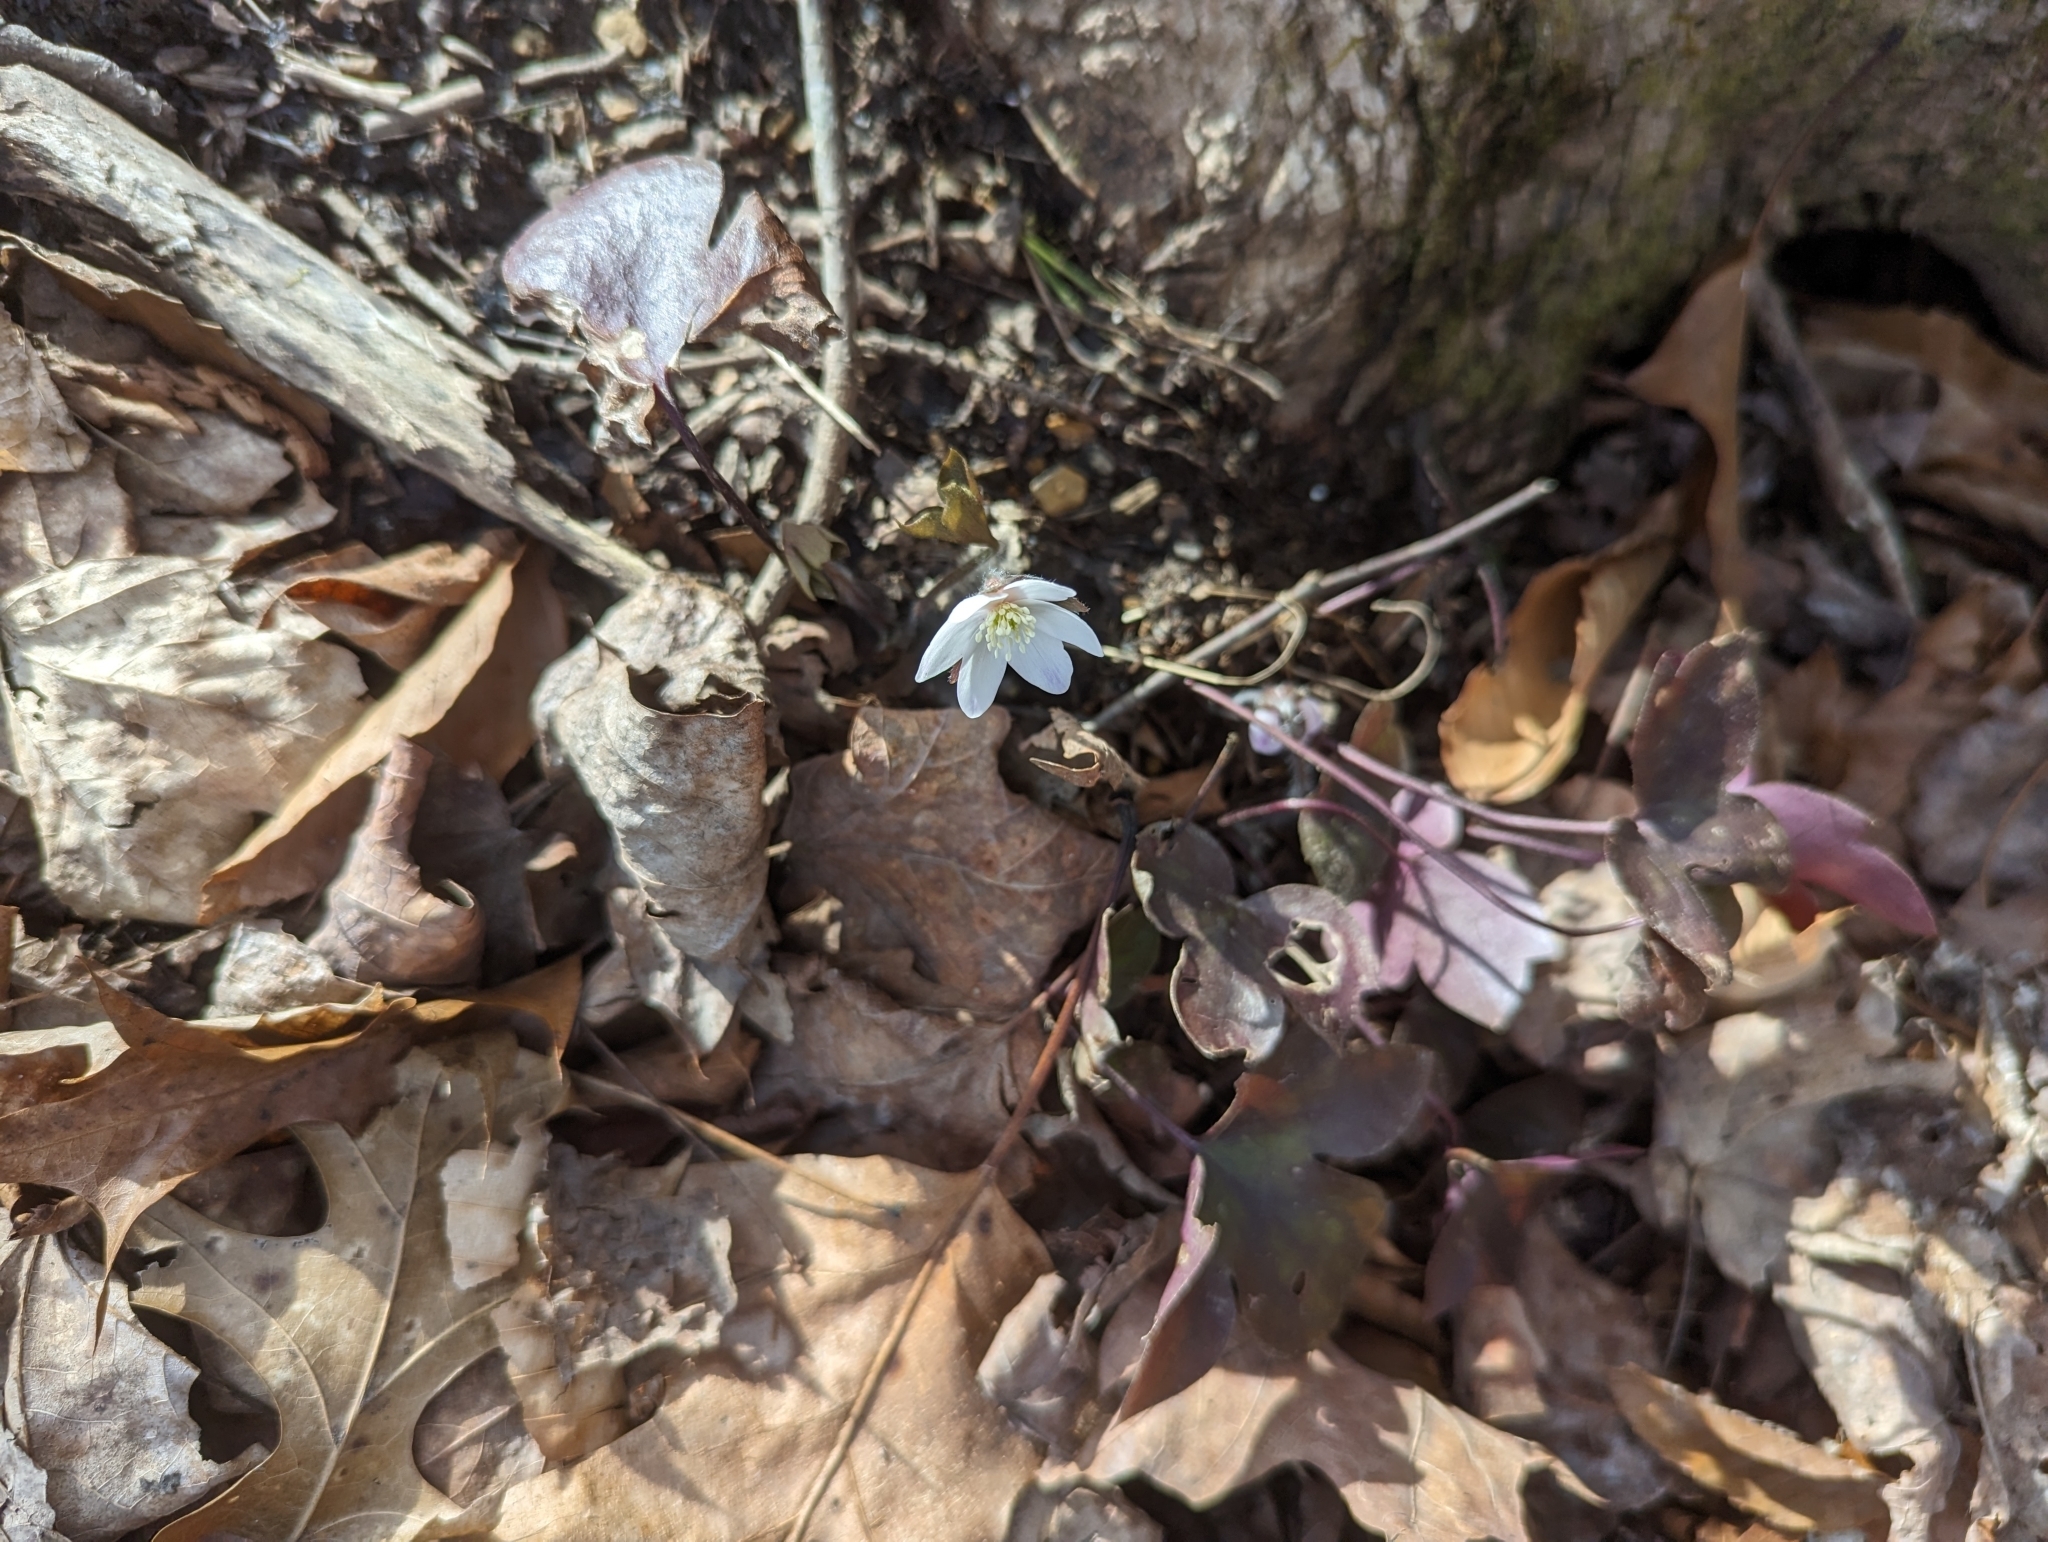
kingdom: Plantae
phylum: Tracheophyta
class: Magnoliopsida
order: Ranunculales
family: Ranunculaceae
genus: Hepatica
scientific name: Hepatica acutiloba
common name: Sharp-lobed hepatica
